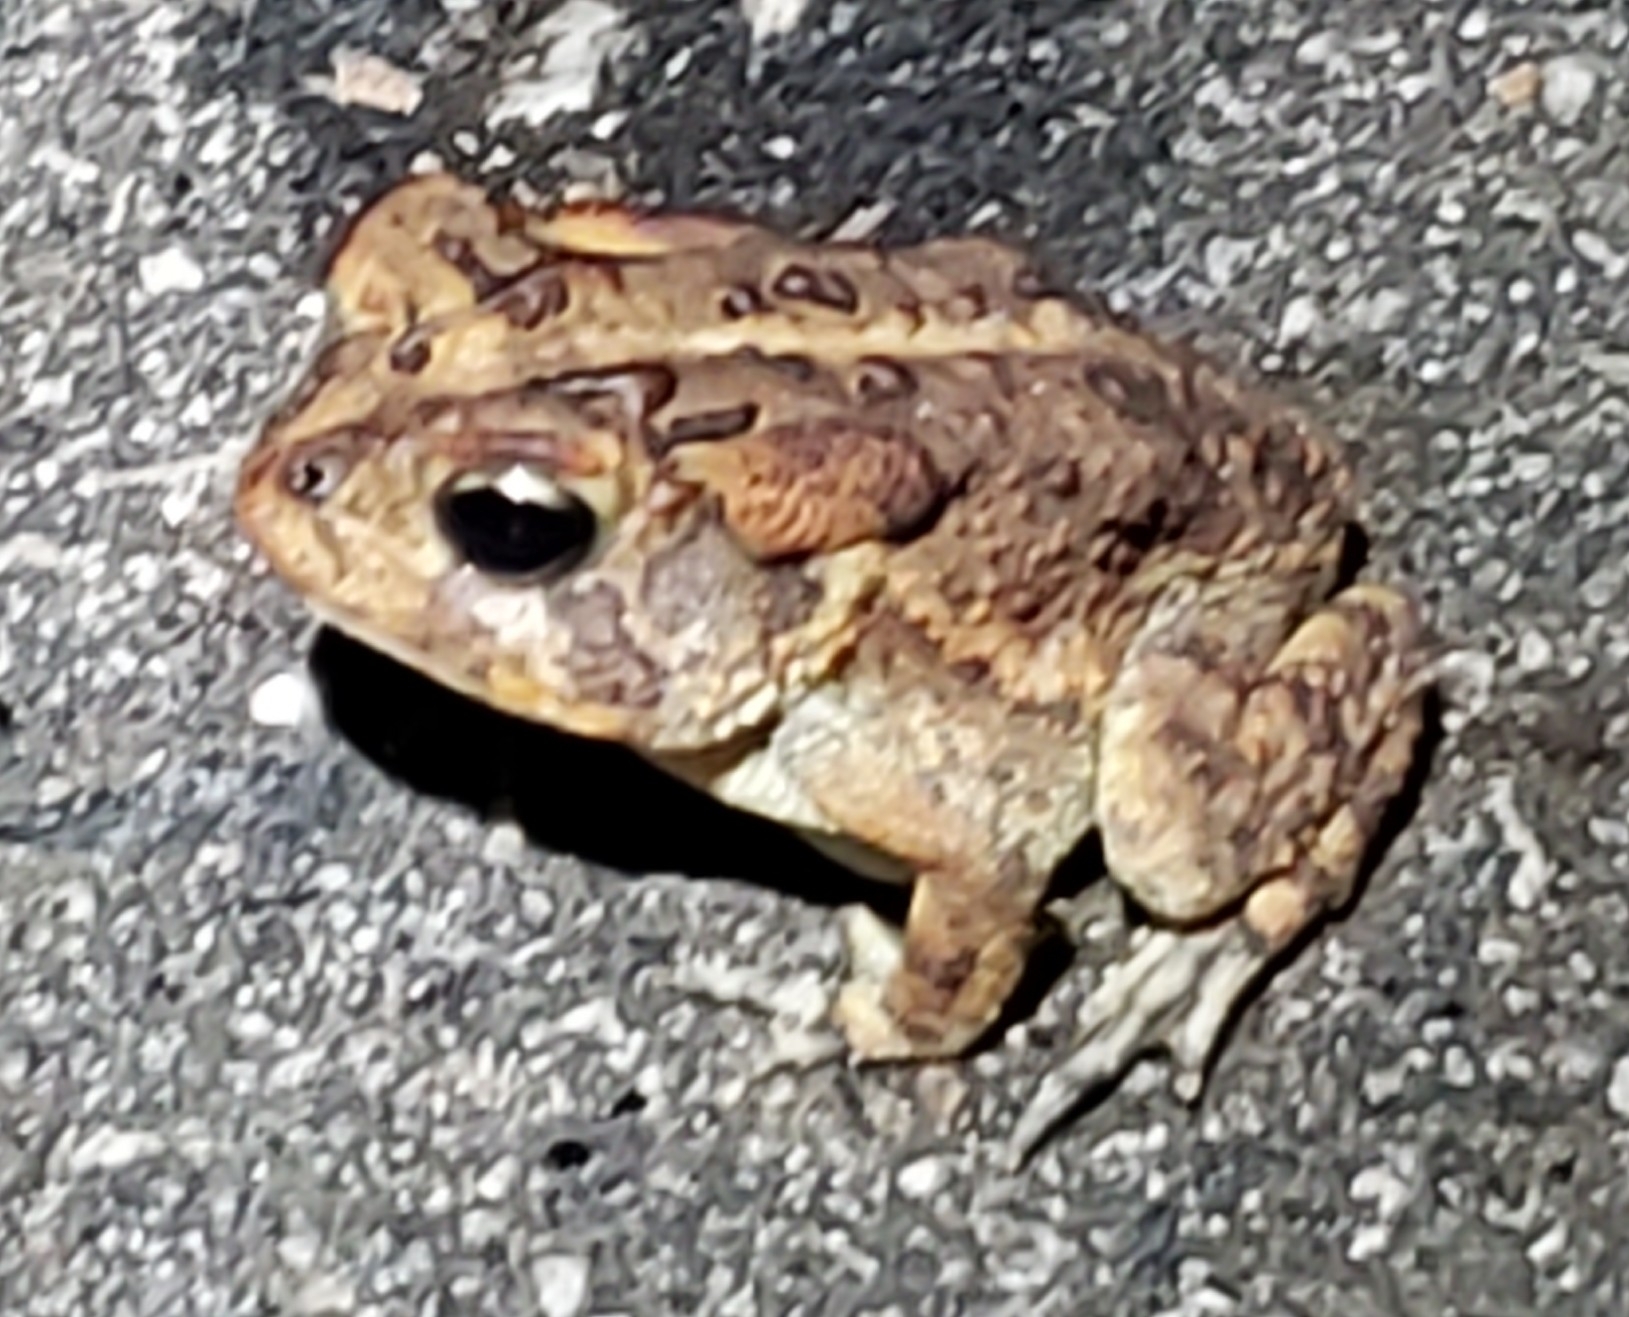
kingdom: Animalia
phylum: Chordata
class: Amphibia
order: Anura
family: Bufonidae
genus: Anaxyrus
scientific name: Anaxyrus terrestris
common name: Southern toad
